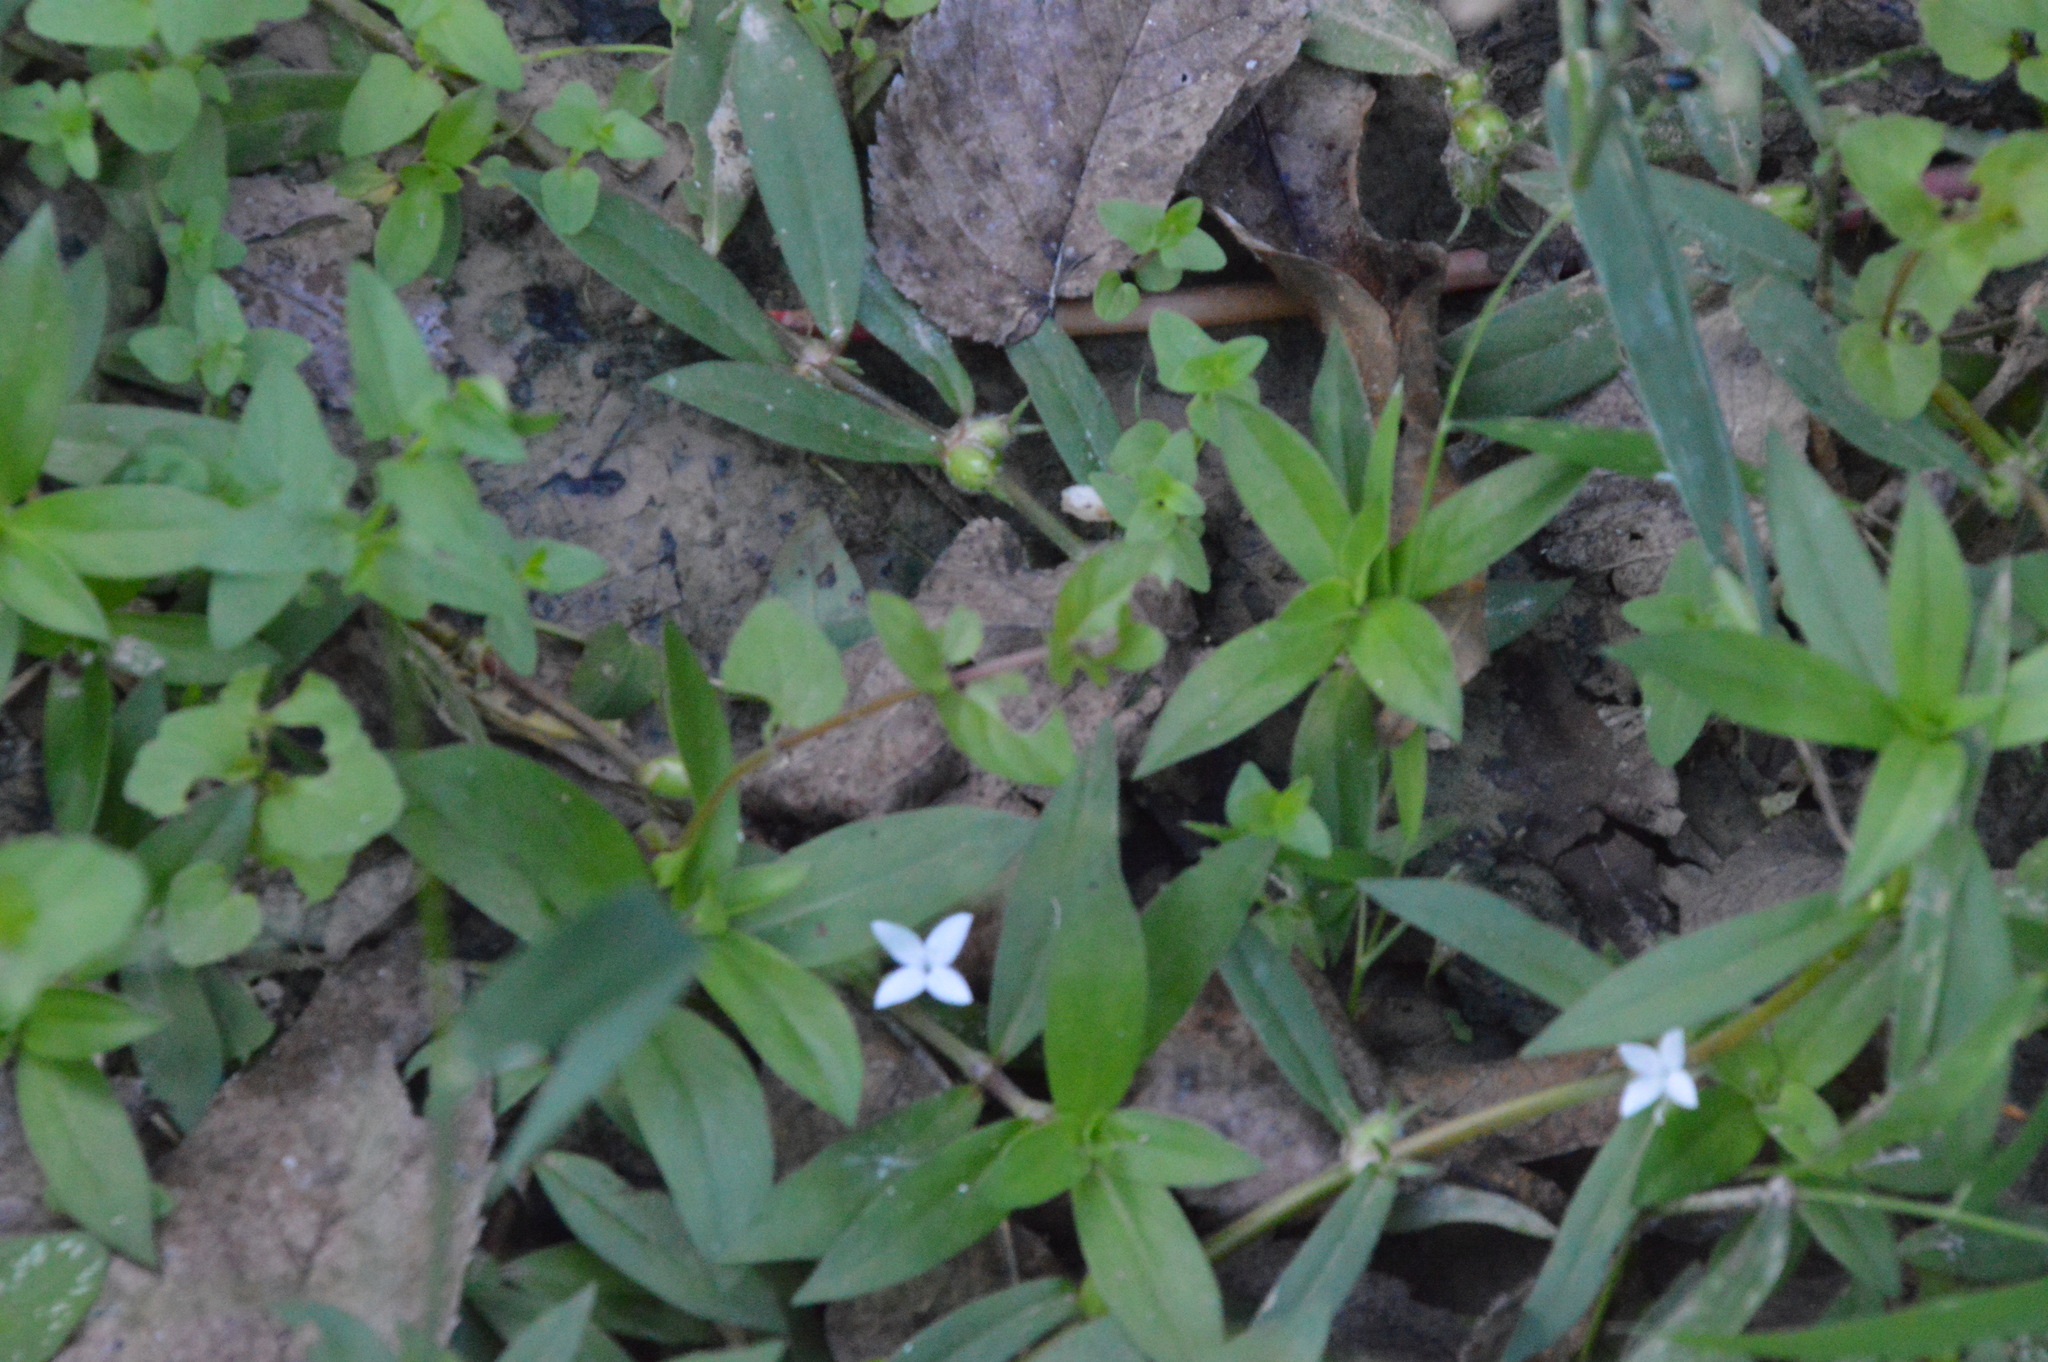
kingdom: Plantae
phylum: Tracheophyta
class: Magnoliopsida
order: Gentianales
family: Rubiaceae
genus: Diodia
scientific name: Diodia virginiana
